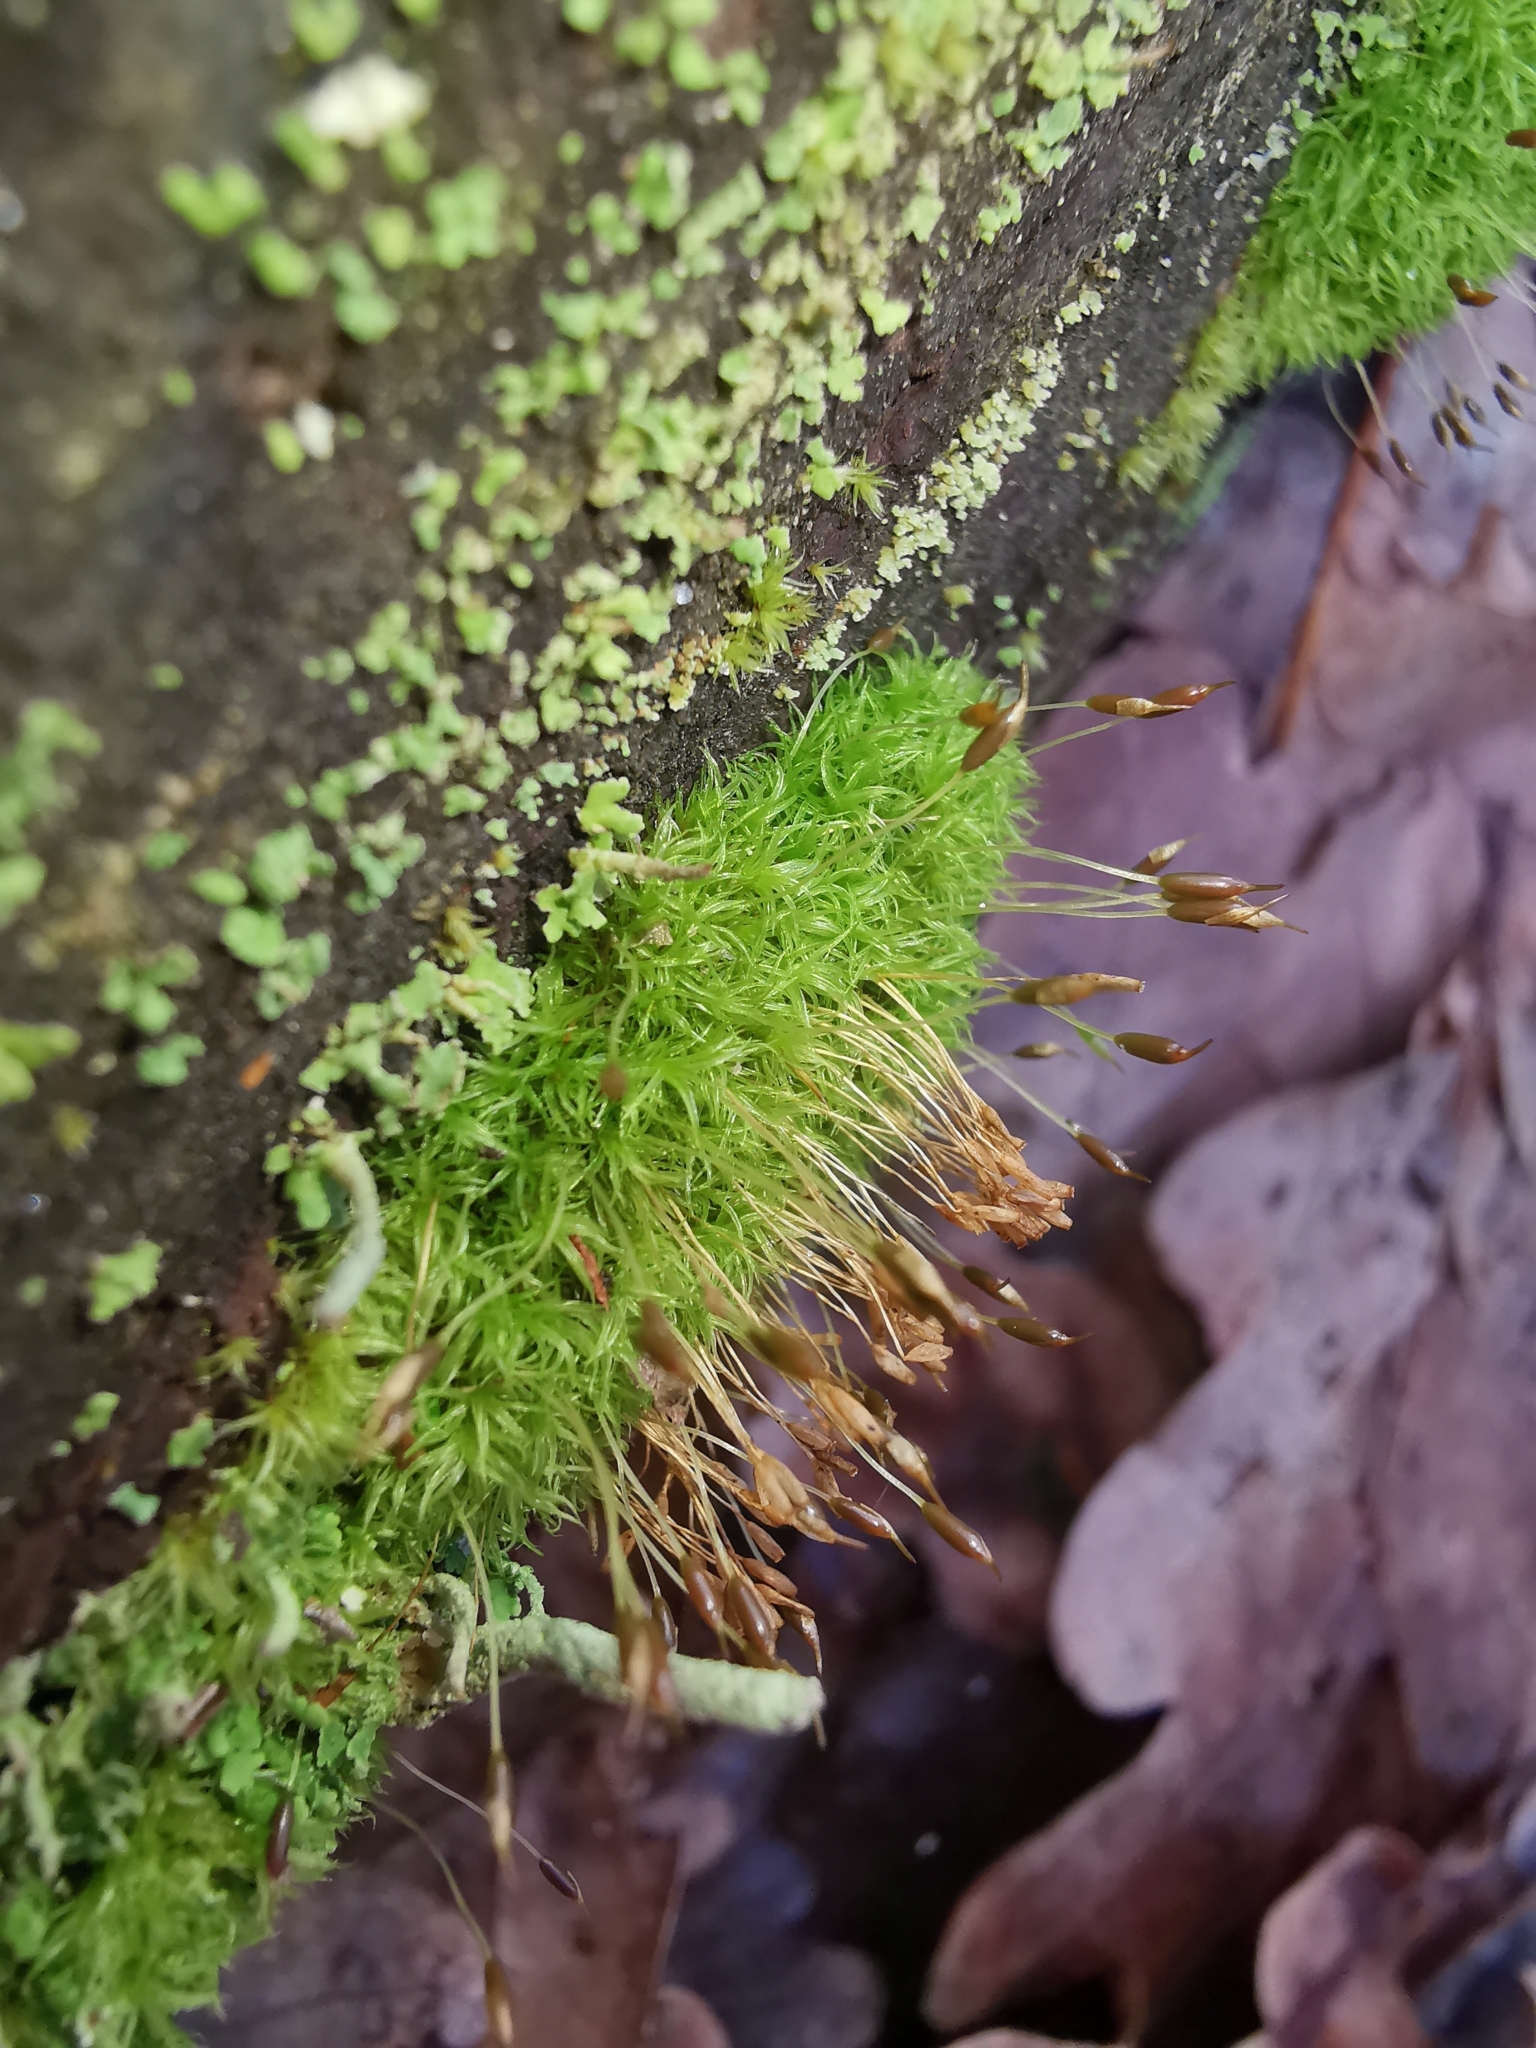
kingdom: Plantae
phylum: Bryophyta
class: Bryopsida
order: Dicranales
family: Rhabdoweisiaceae
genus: Dicranoweisia
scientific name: Dicranoweisia cirrata
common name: Common pincushion
